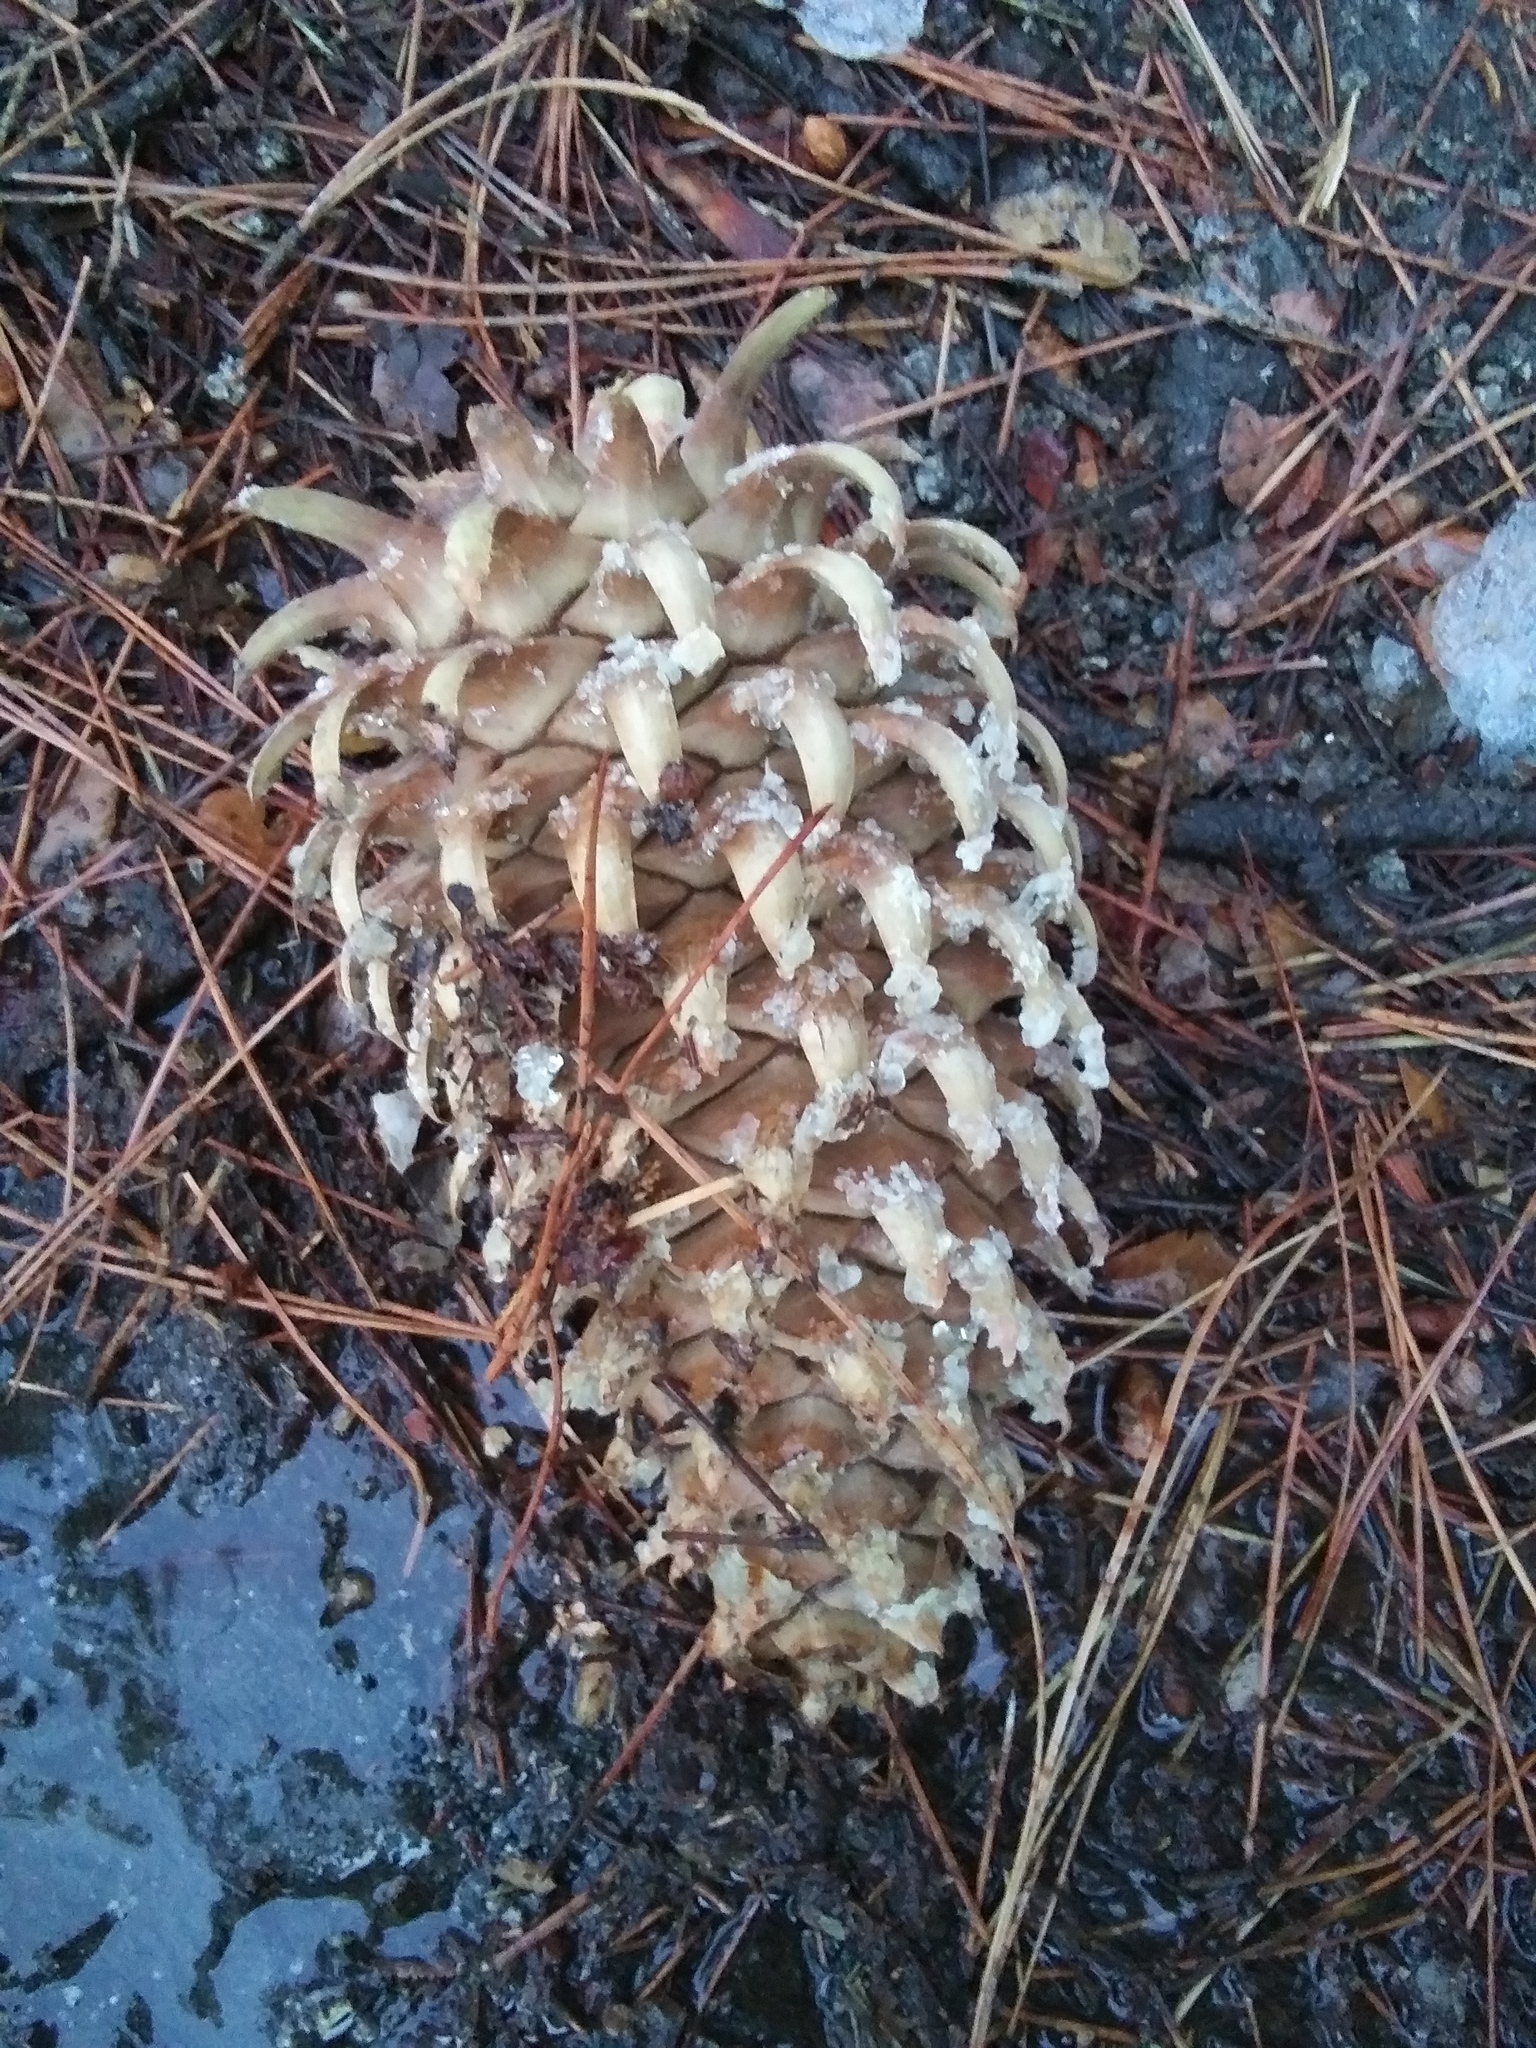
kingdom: Plantae
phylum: Tracheophyta
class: Pinopsida
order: Pinales
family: Pinaceae
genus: Pinus
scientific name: Pinus coulteri
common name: Coulter pine
